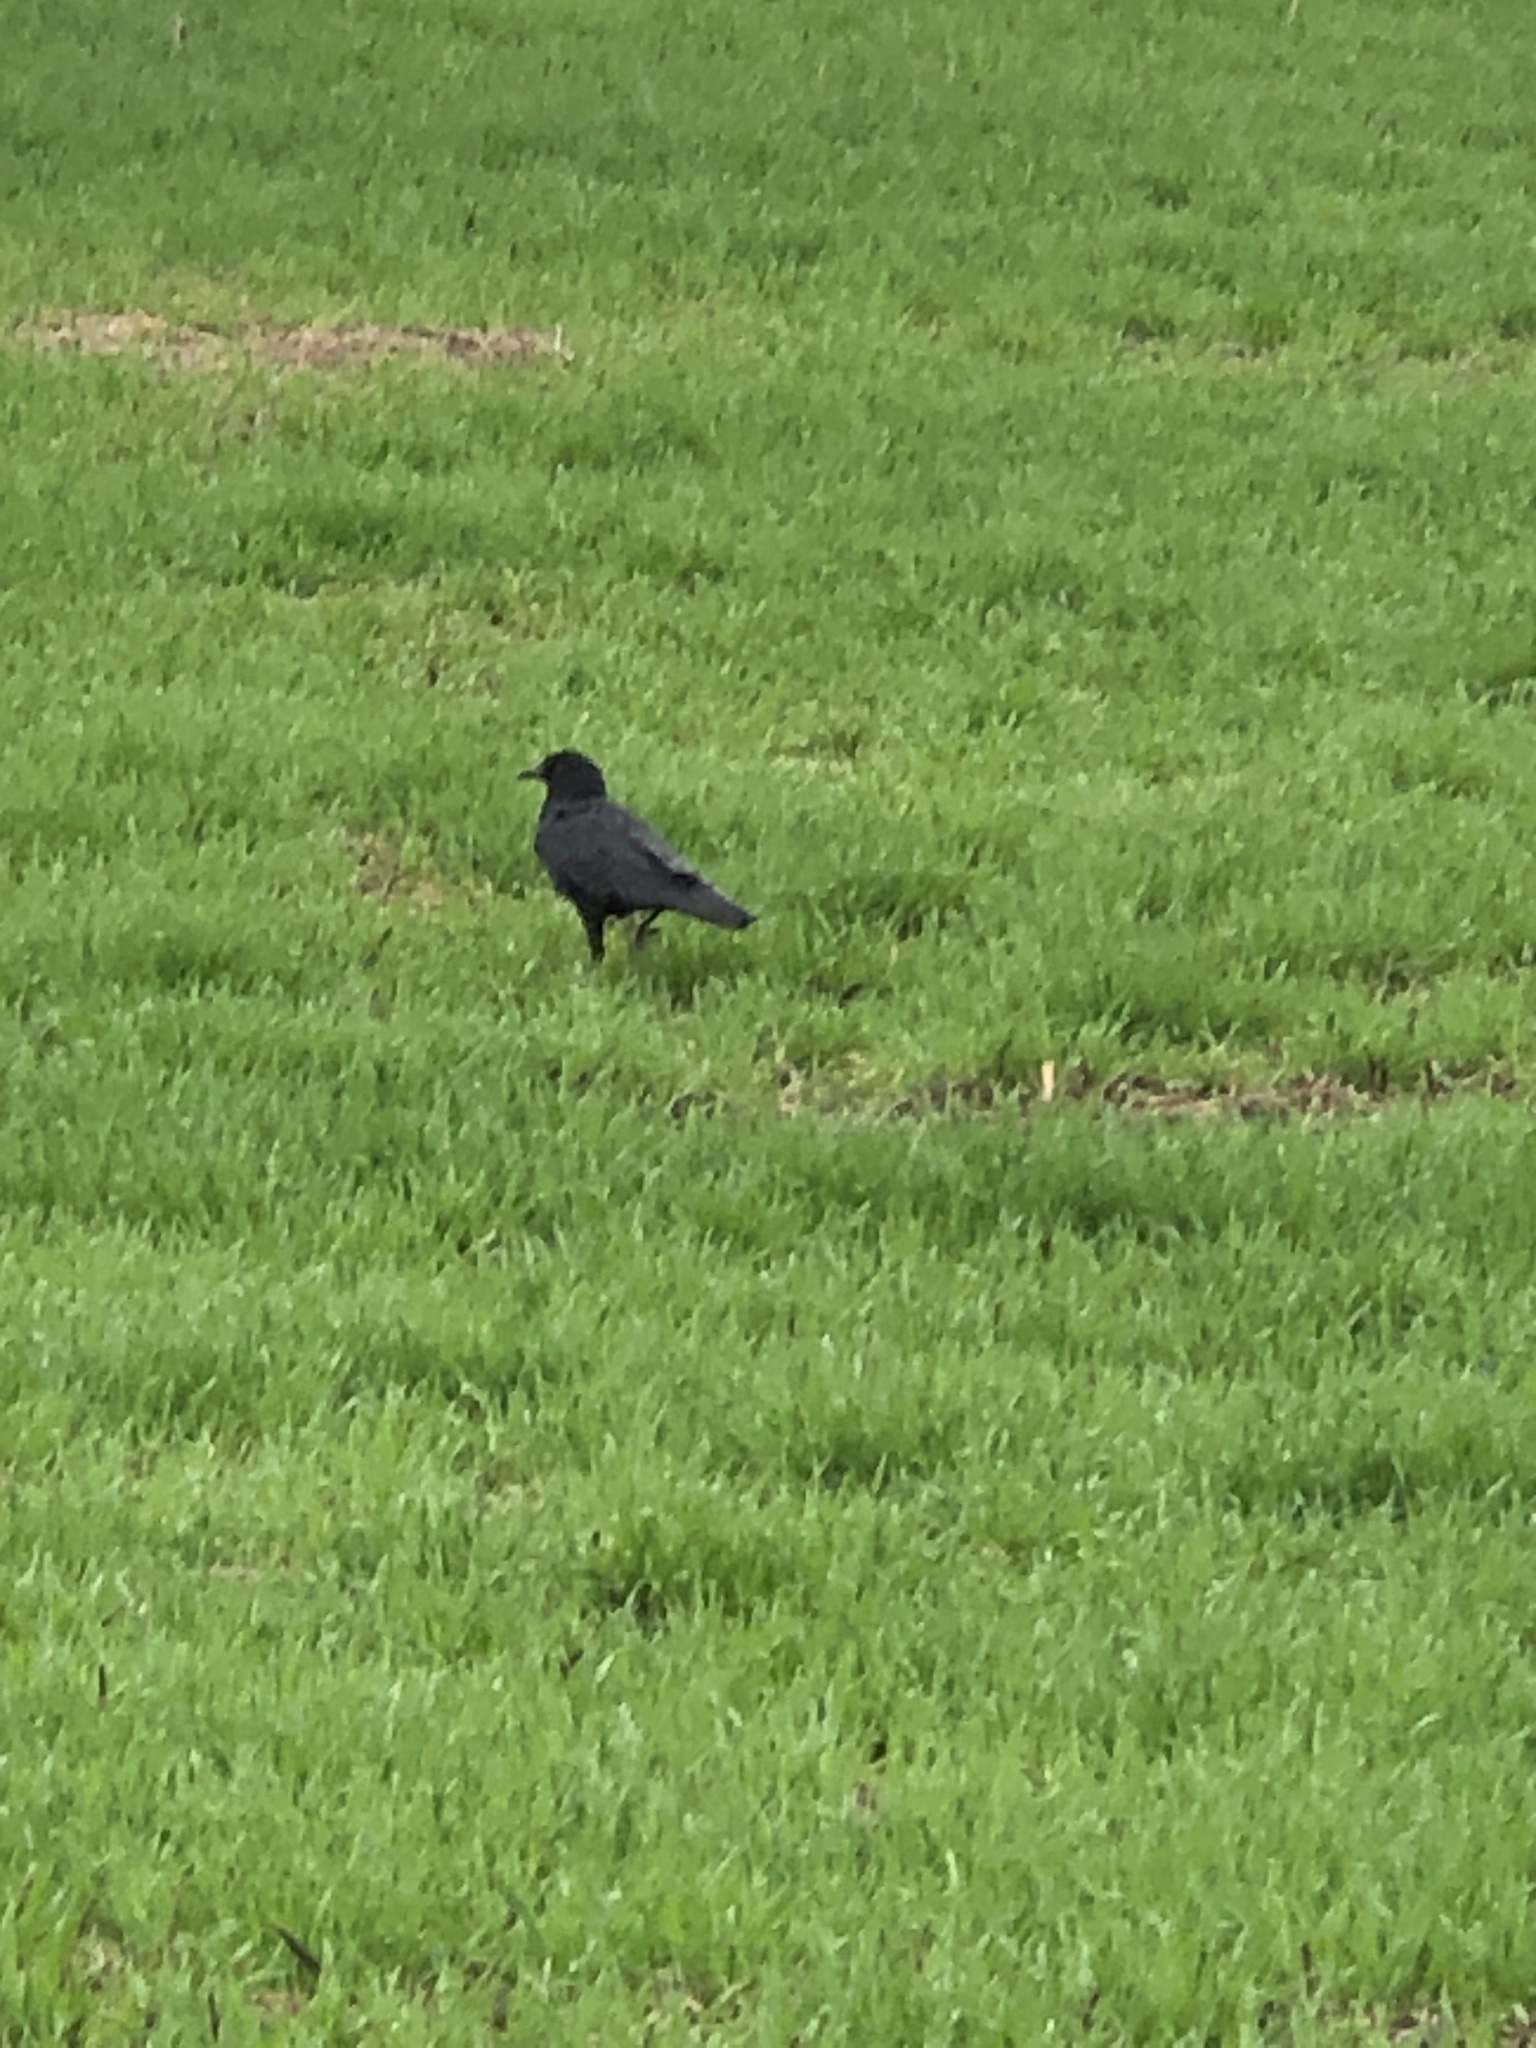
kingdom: Animalia
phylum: Chordata
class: Aves
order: Passeriformes
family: Corvidae
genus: Corvus
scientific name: Corvus brachyrhynchos
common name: American crow
